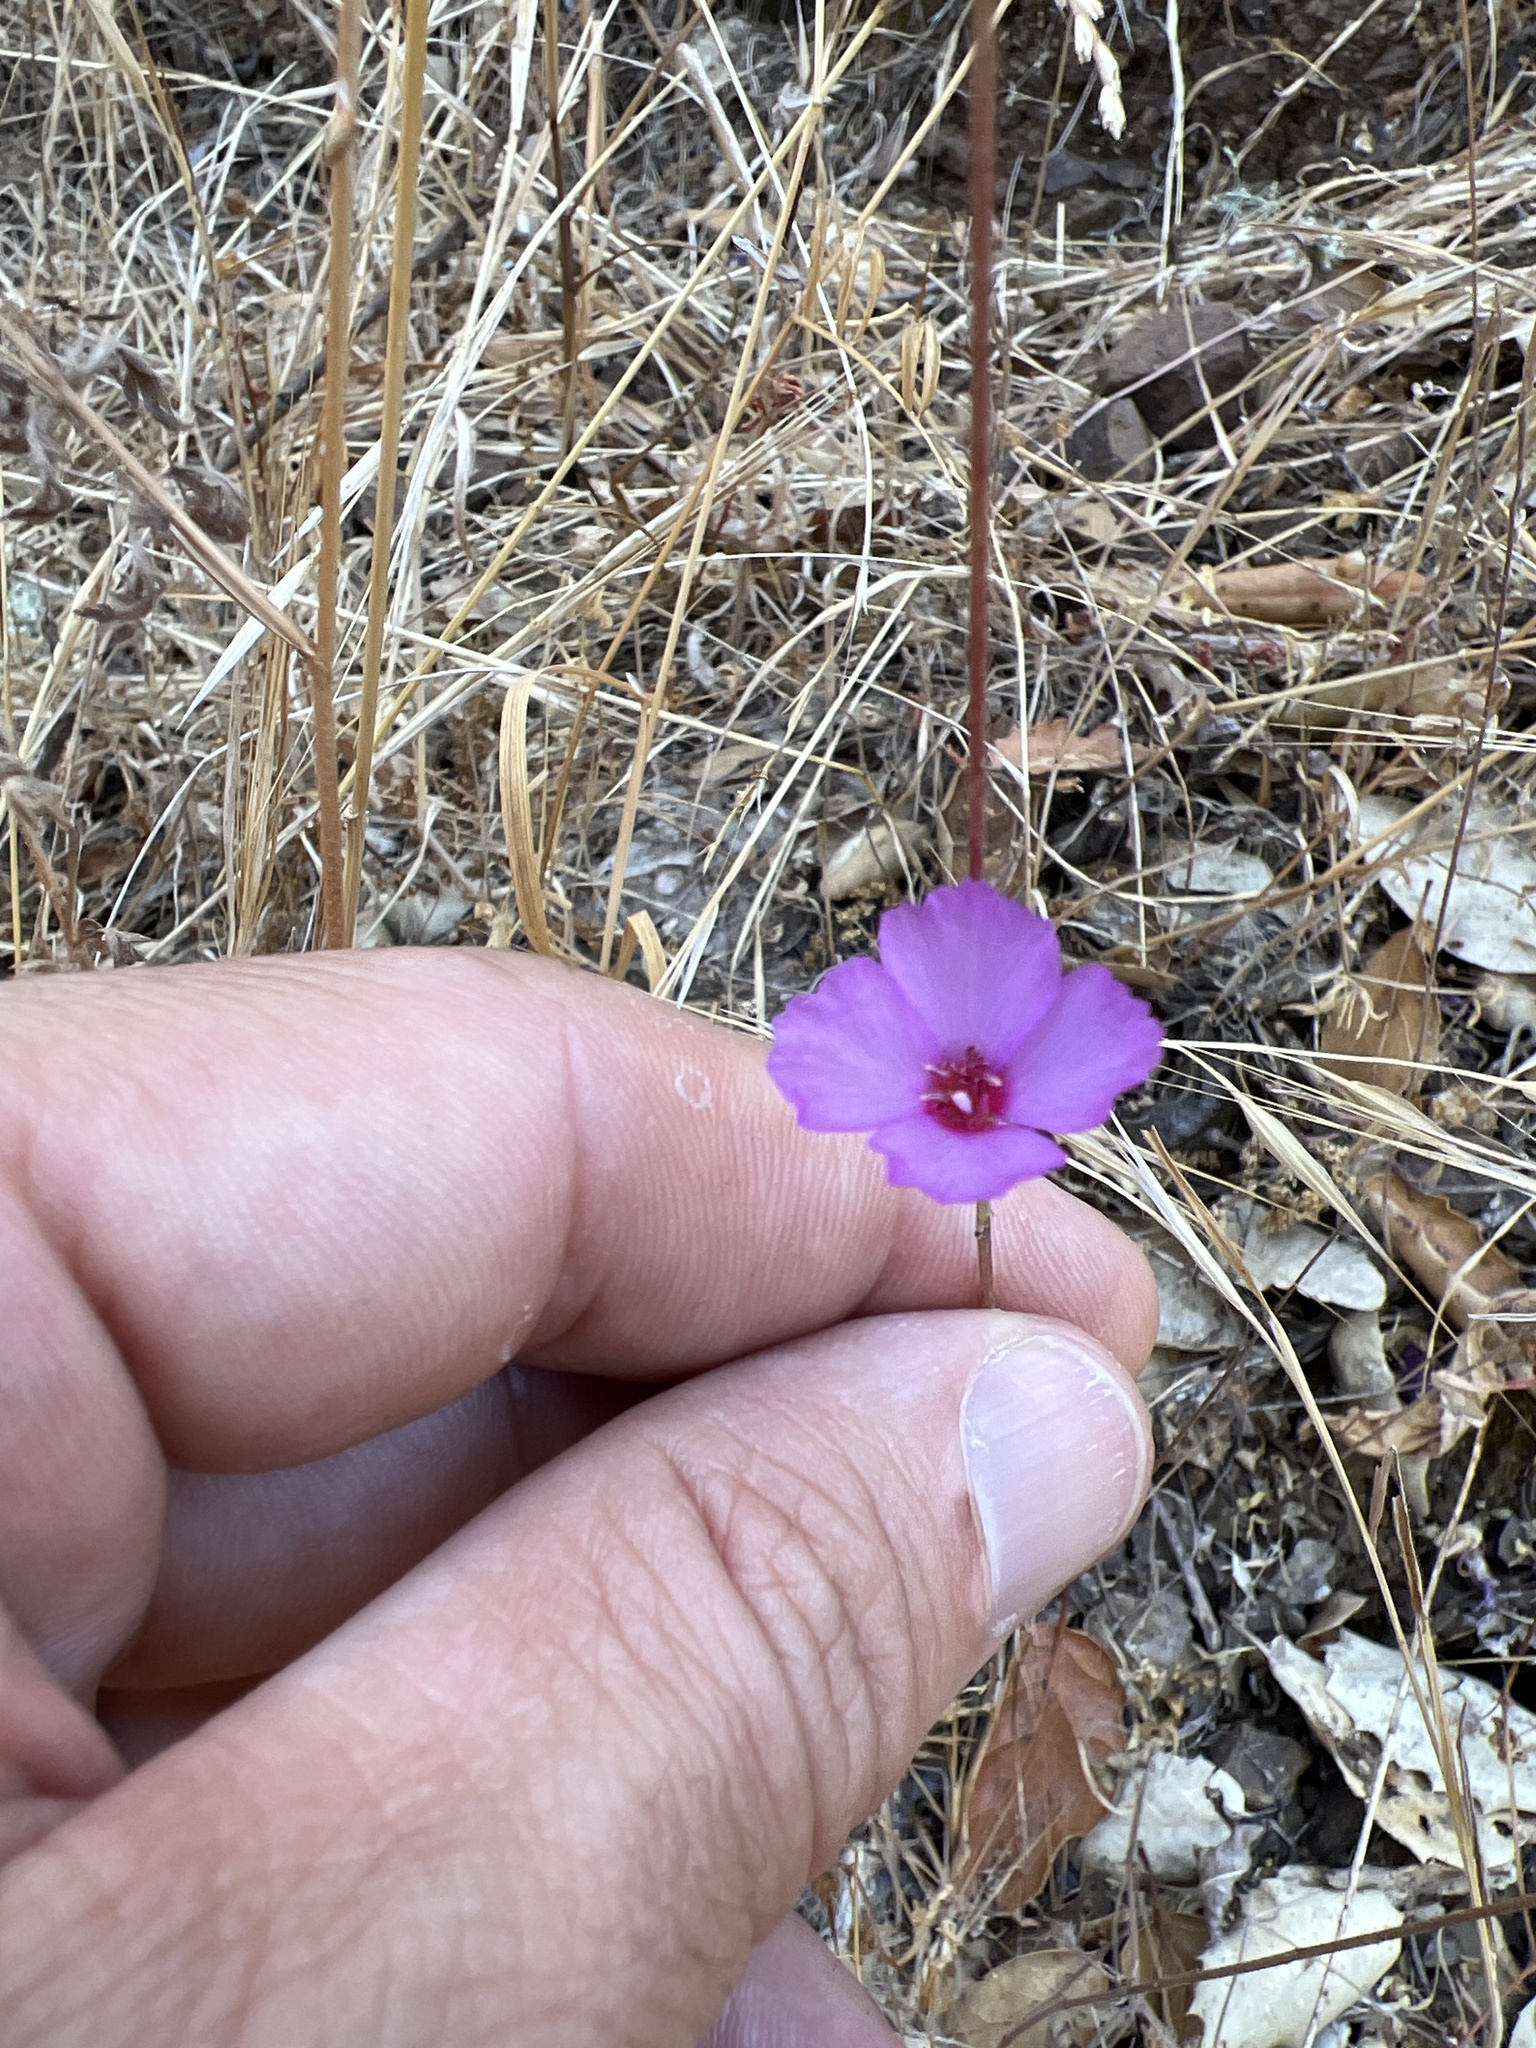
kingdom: Plantae
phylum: Tracheophyta
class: Magnoliopsida
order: Myrtales
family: Onagraceae
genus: Clarkia
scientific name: Clarkia rubicunda
